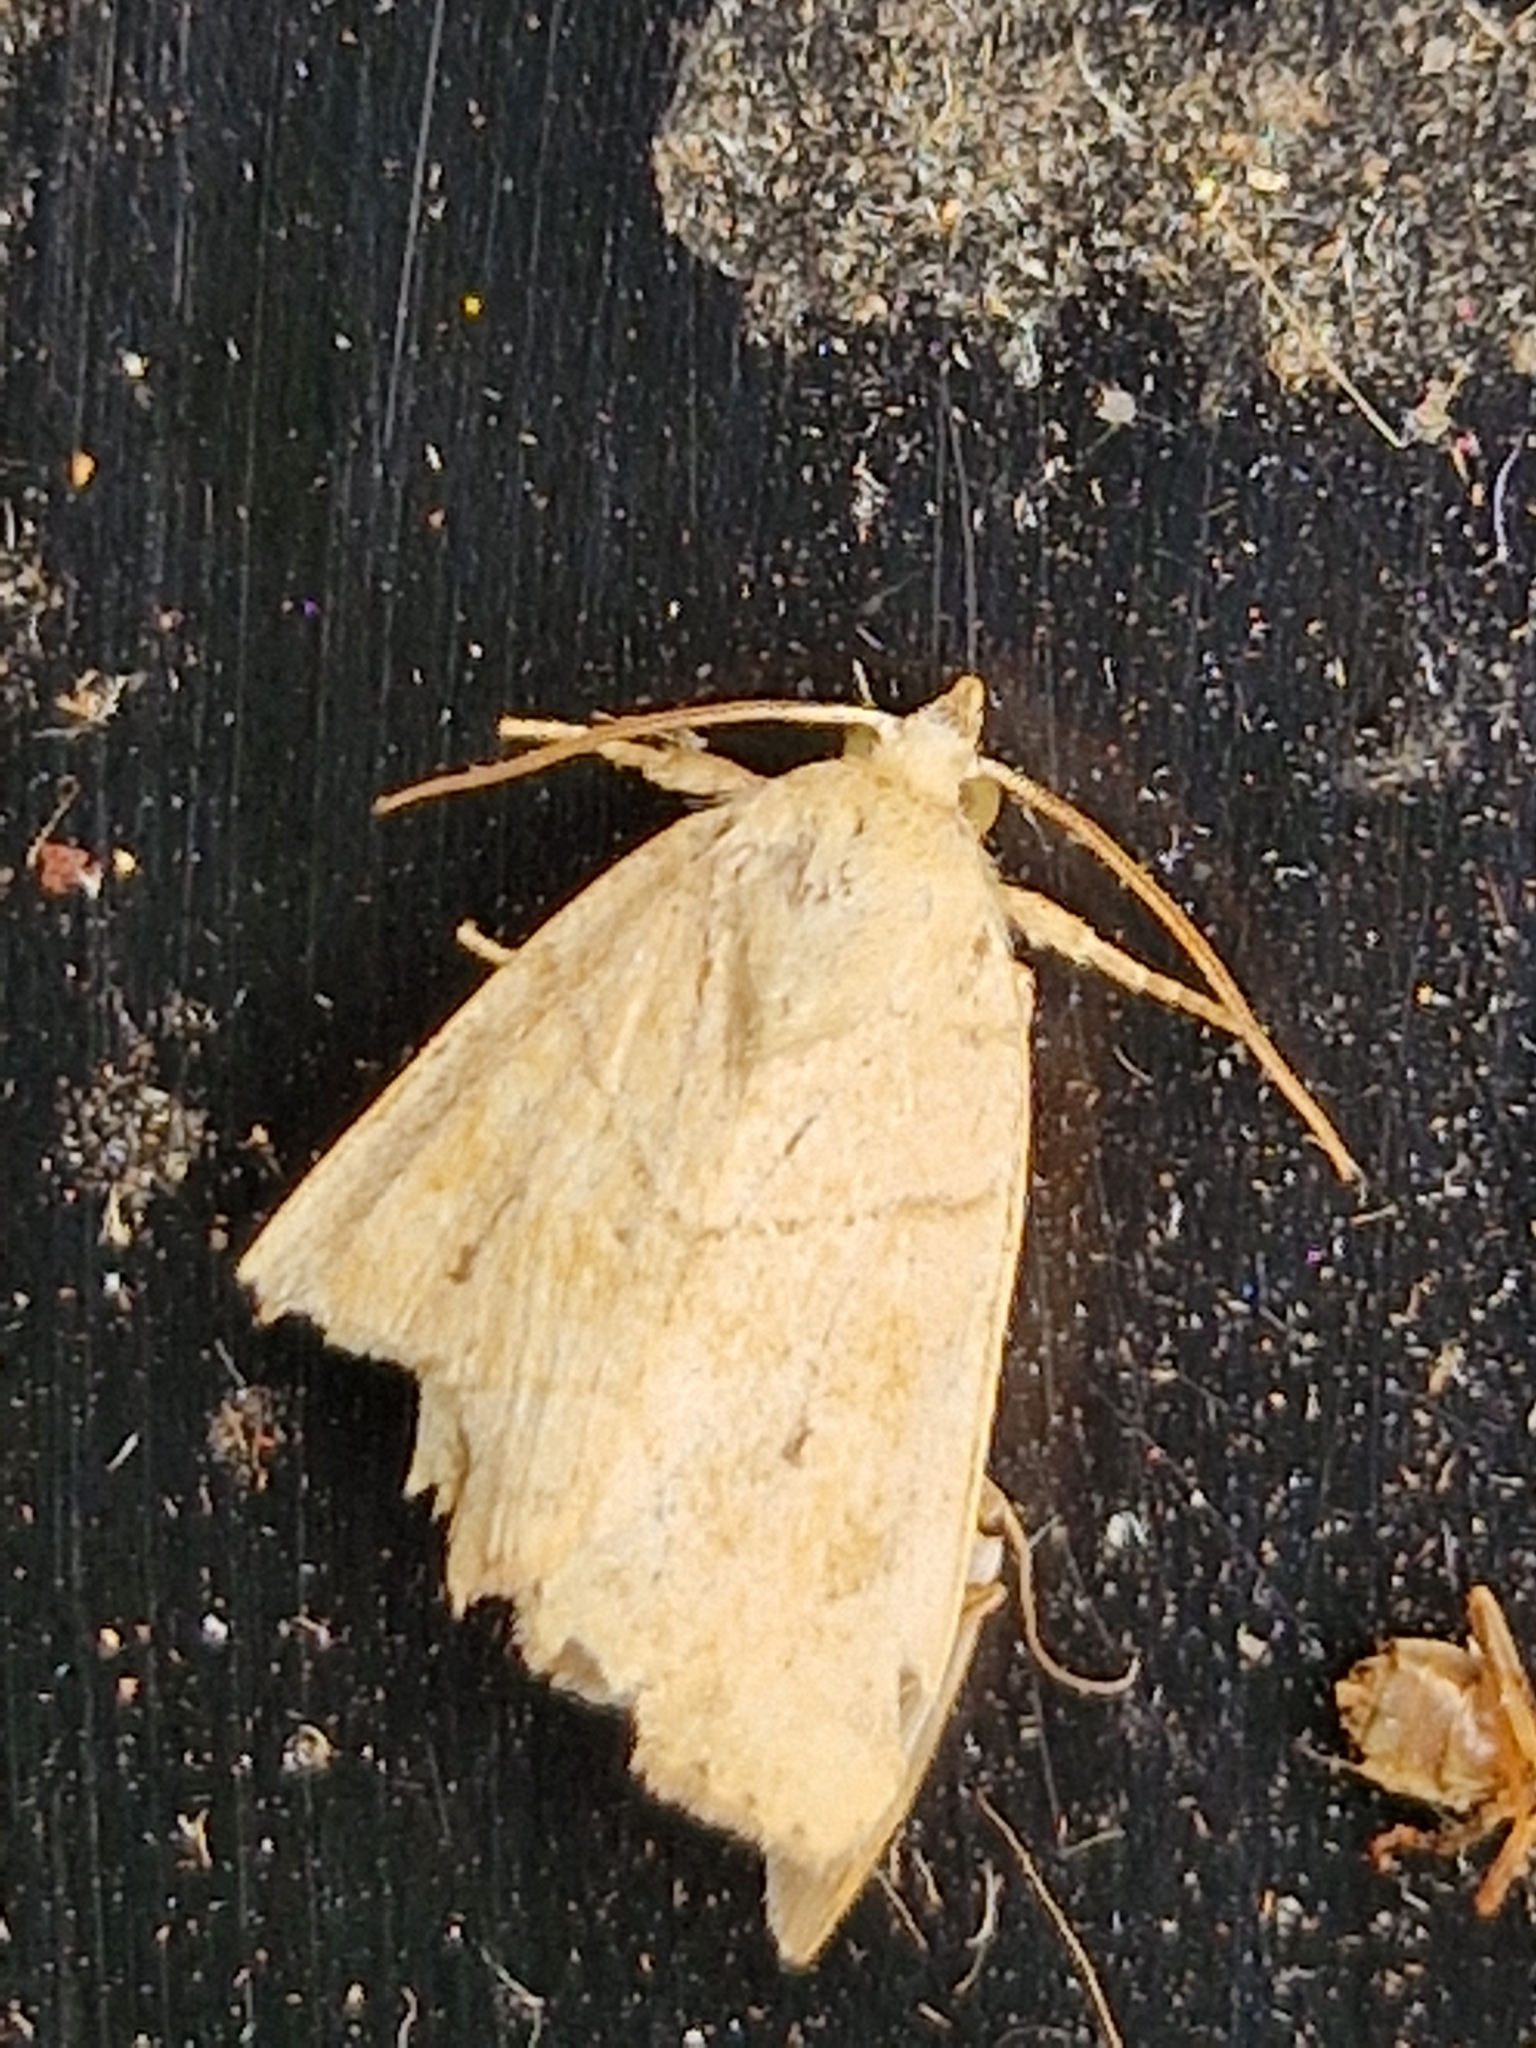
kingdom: Animalia
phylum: Arthropoda
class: Insecta
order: Lepidoptera
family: Noctuidae
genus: Cosmia
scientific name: Cosmia trapezina
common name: Dun-bar
